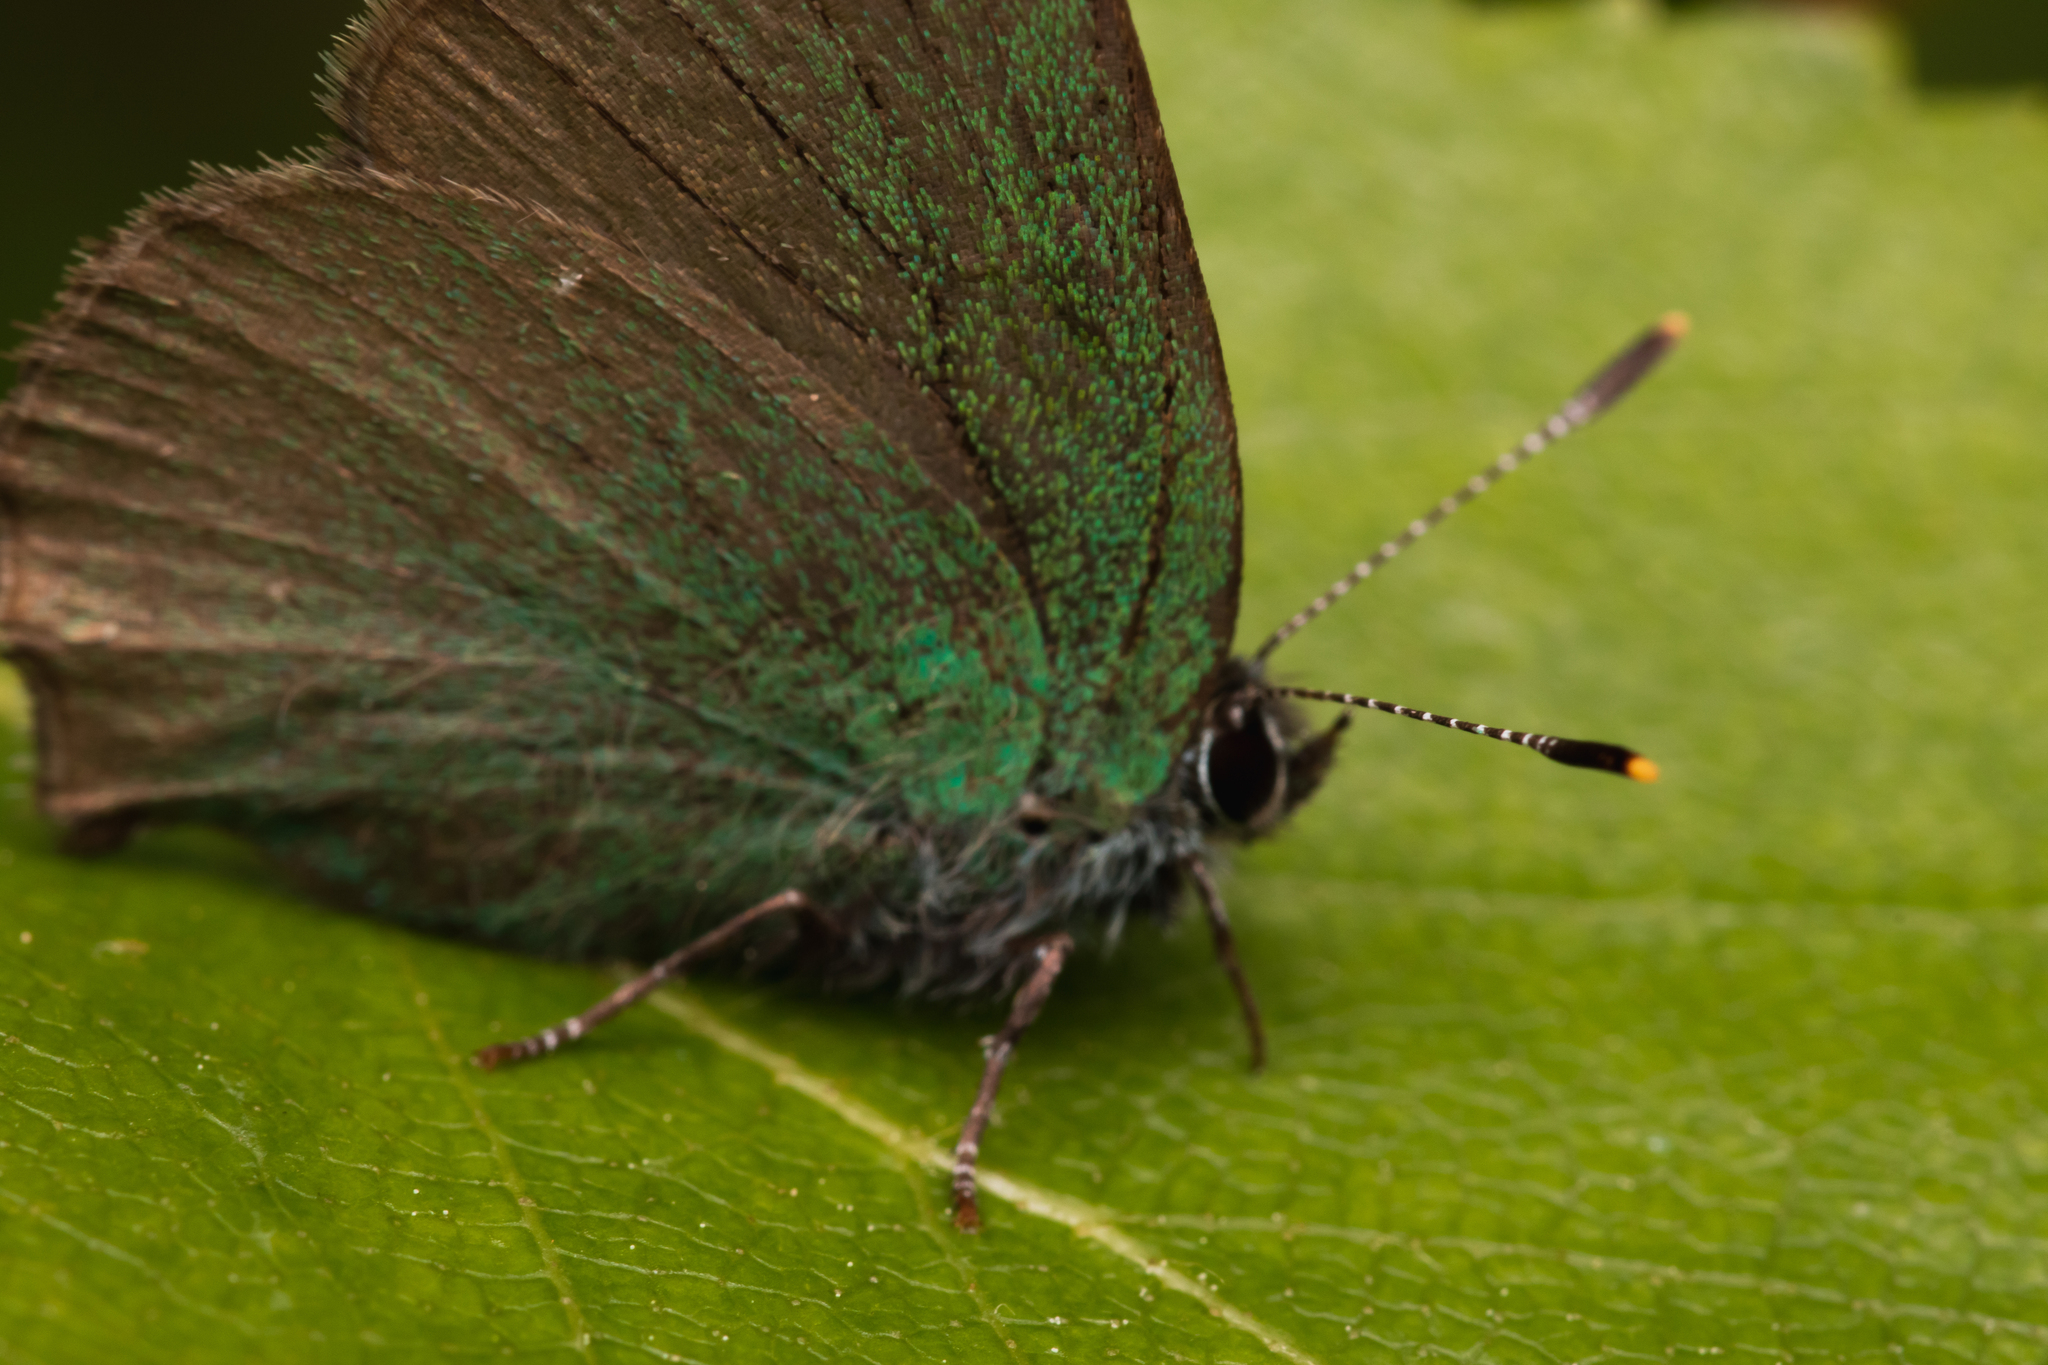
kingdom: Animalia
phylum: Arthropoda
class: Insecta
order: Lepidoptera
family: Lycaenidae
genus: Callophrys
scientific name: Callophrys rubi
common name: Green hairstreak
